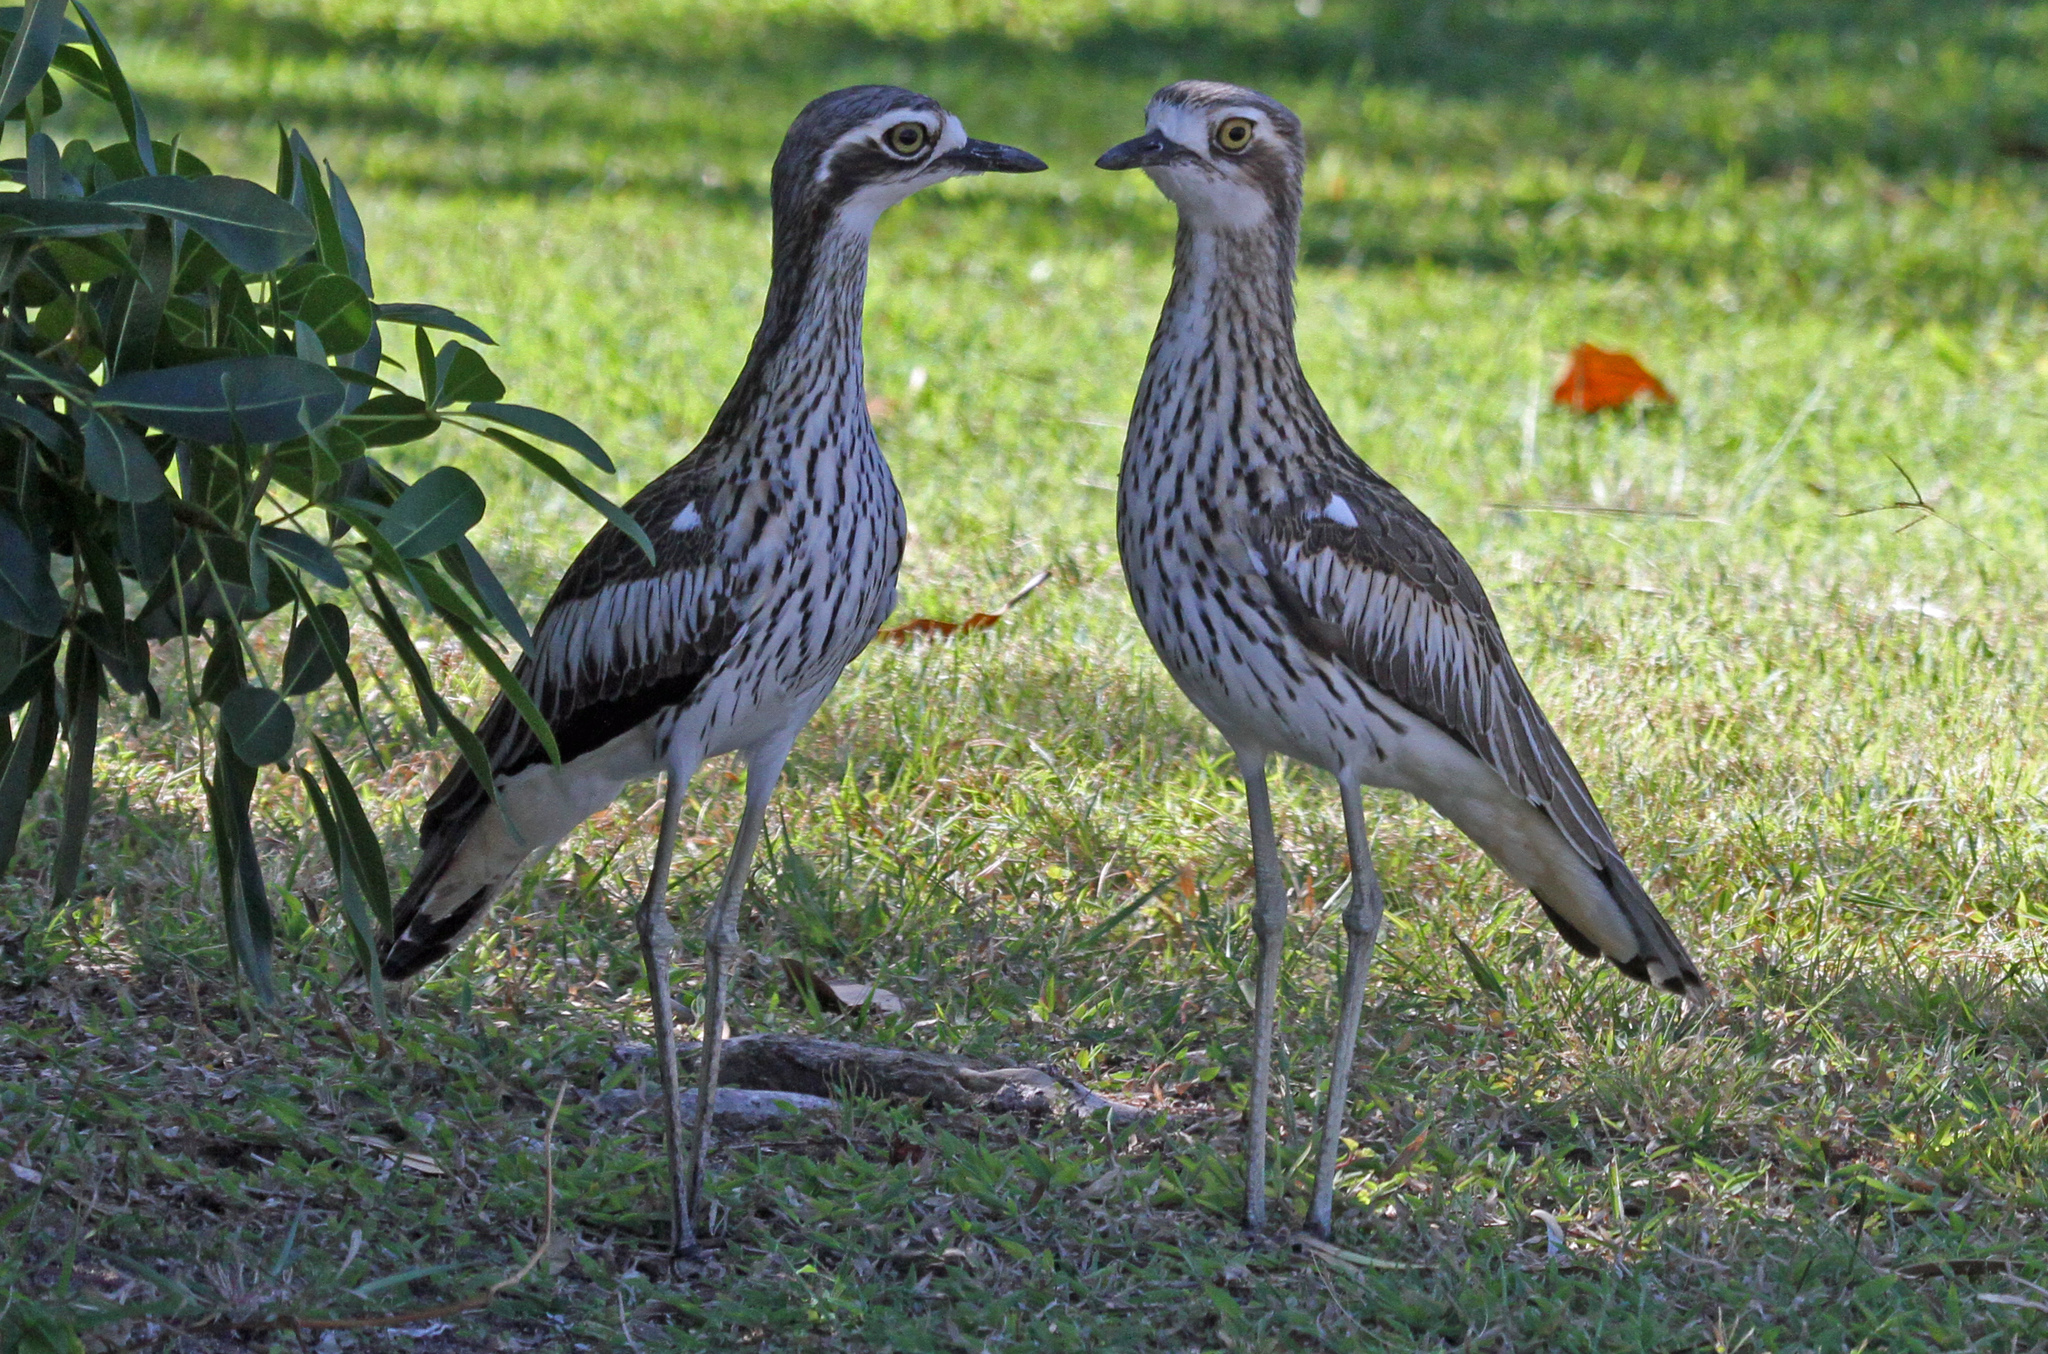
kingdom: Animalia
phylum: Chordata
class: Aves
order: Charadriiformes
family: Burhinidae
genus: Burhinus
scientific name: Burhinus grallarius
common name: Bush stone-curlew
